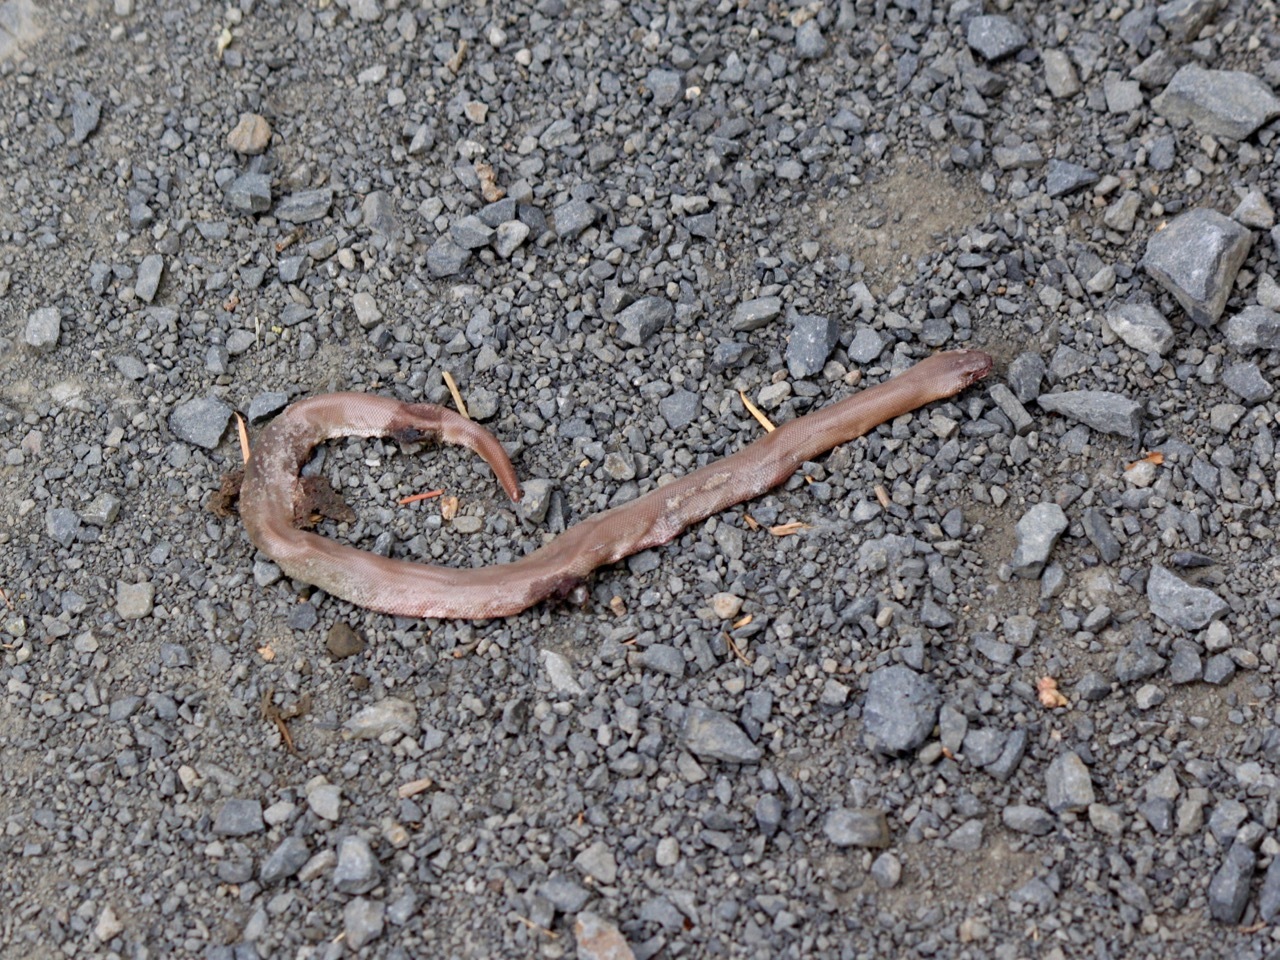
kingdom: Animalia
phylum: Chordata
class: Squamata
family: Boidae
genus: Charina
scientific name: Charina bottae
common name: Northern rubber boa
